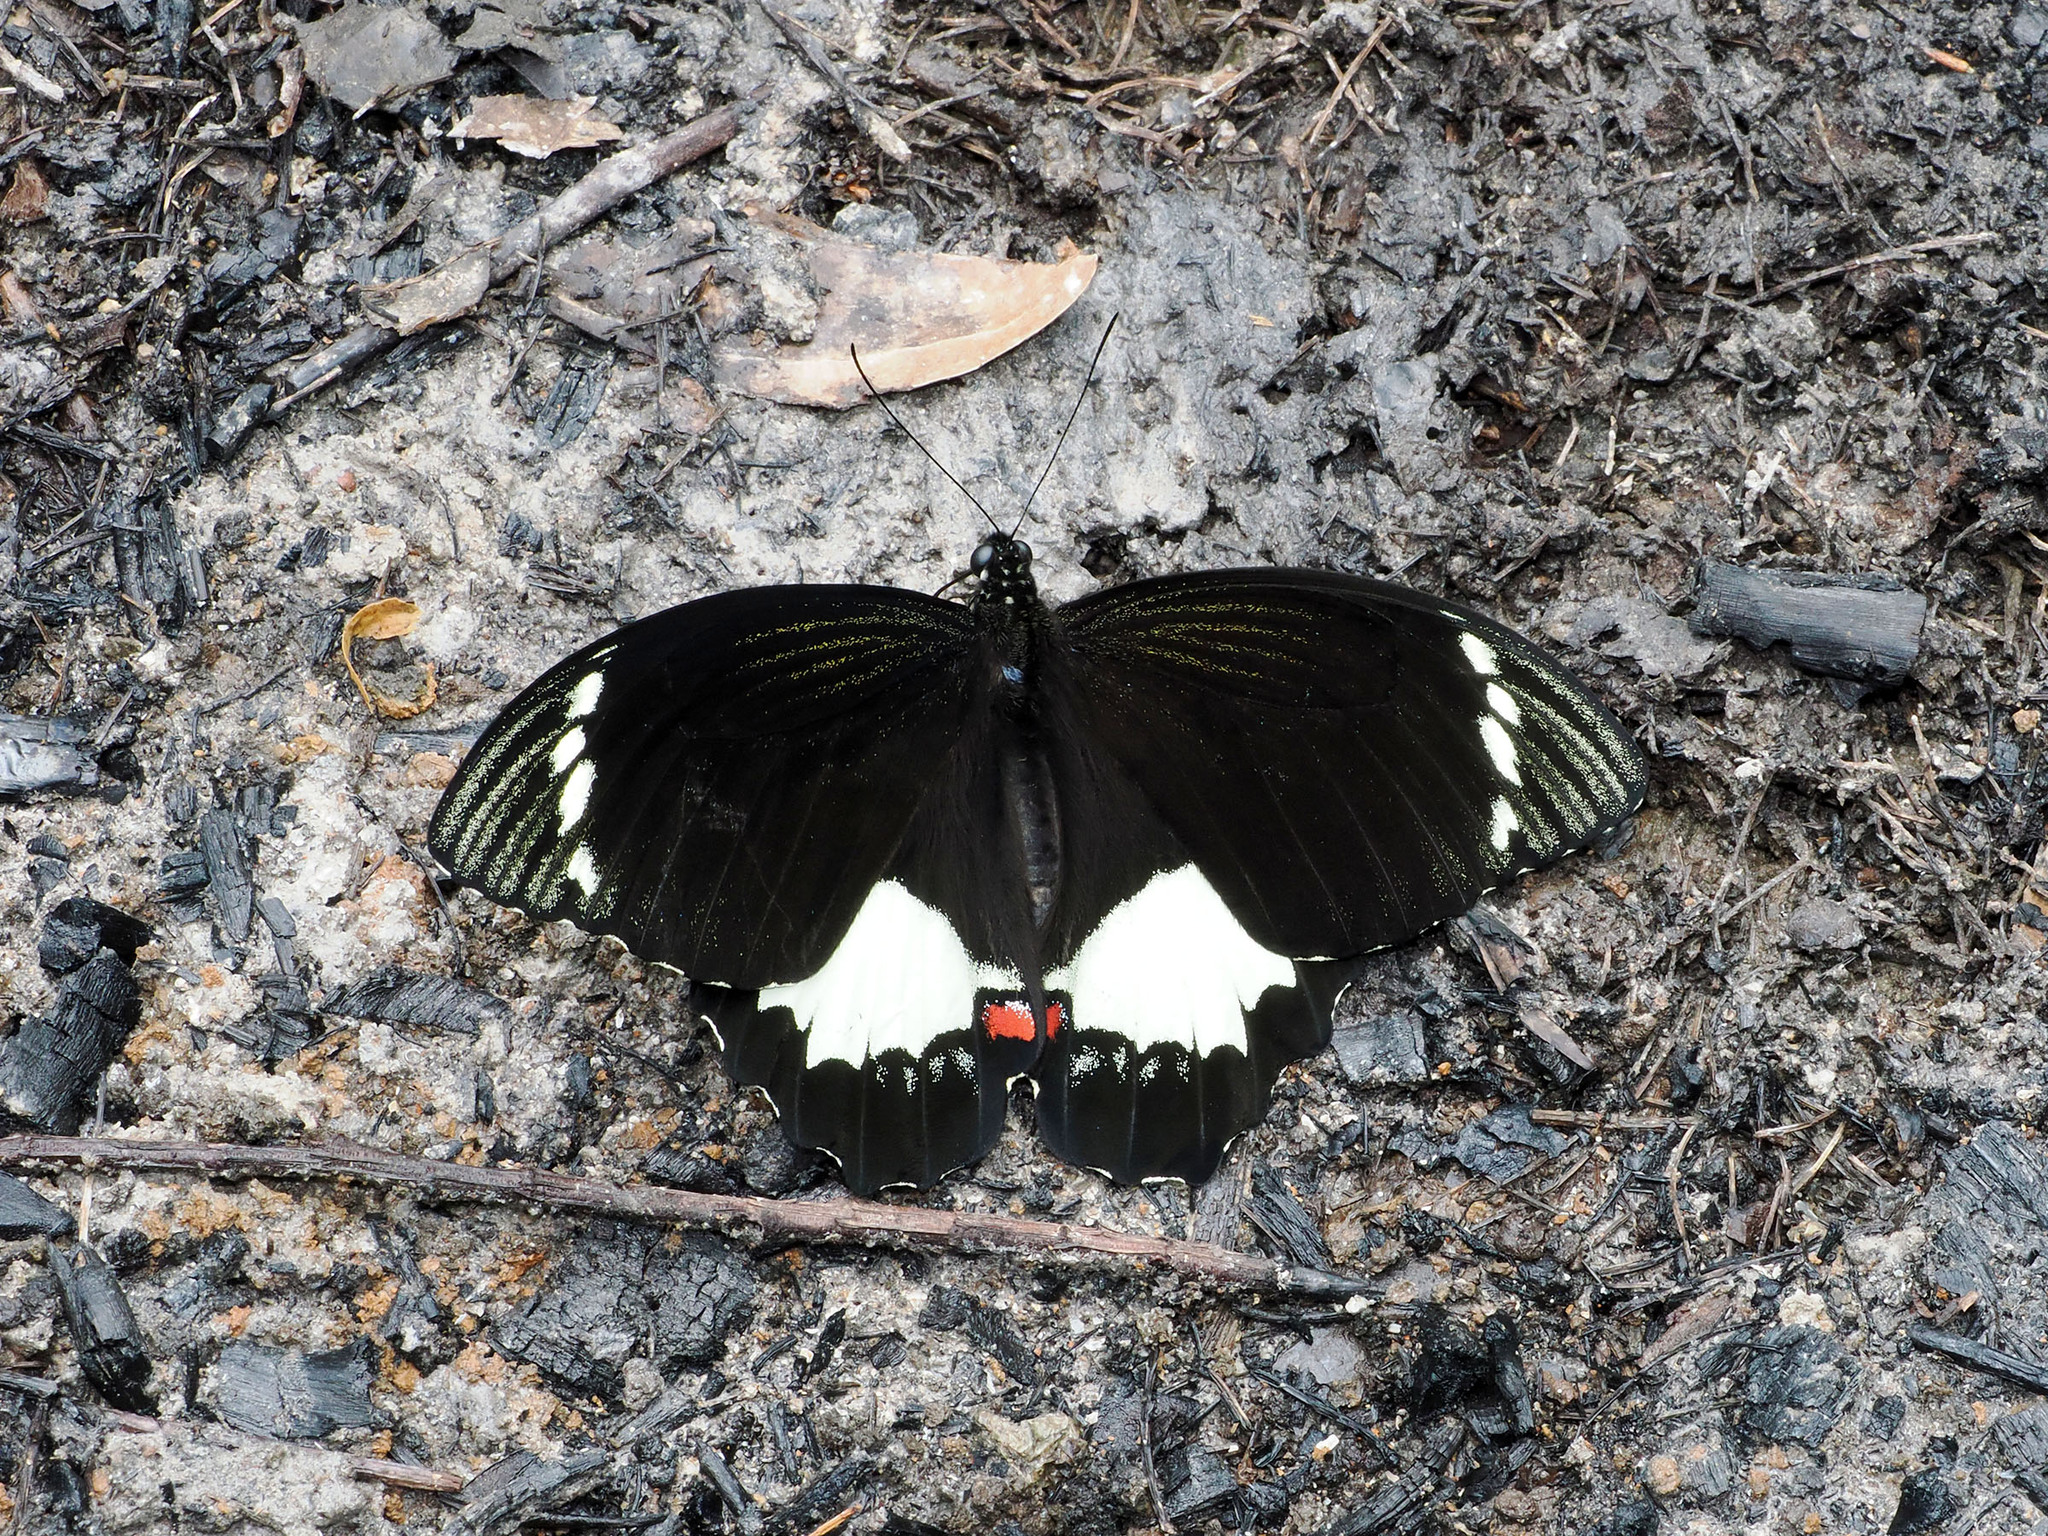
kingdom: Animalia
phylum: Arthropoda
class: Insecta
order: Lepidoptera
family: Papilionidae
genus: Papilio
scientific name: Papilio aegeus
